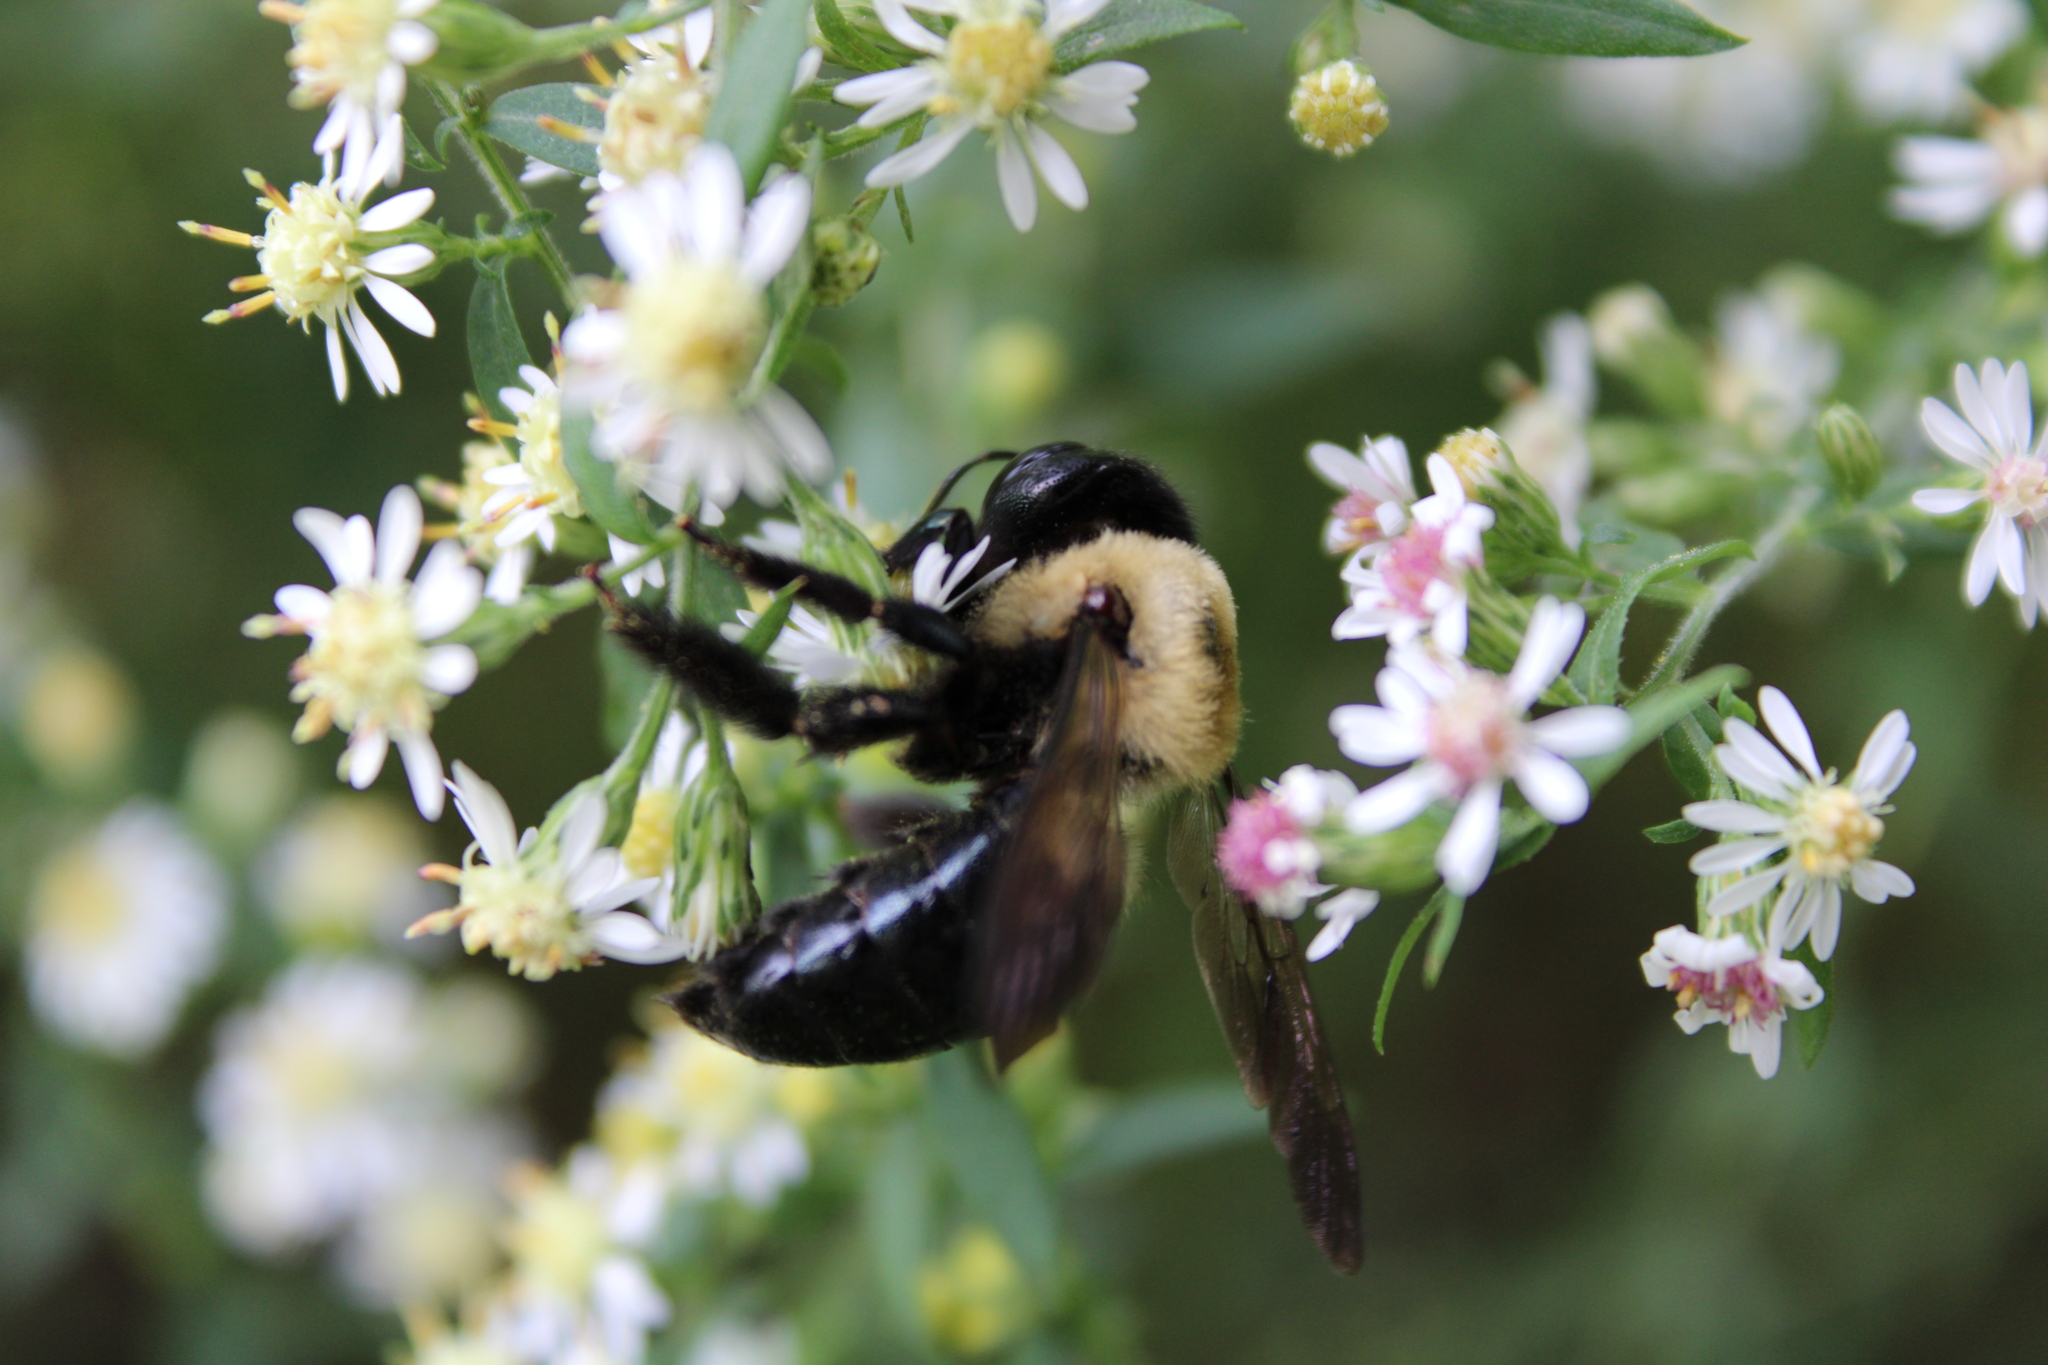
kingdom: Animalia
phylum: Arthropoda
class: Insecta
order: Hymenoptera
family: Apidae
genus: Xylocopa
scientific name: Xylocopa virginica
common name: Carpenter bee
